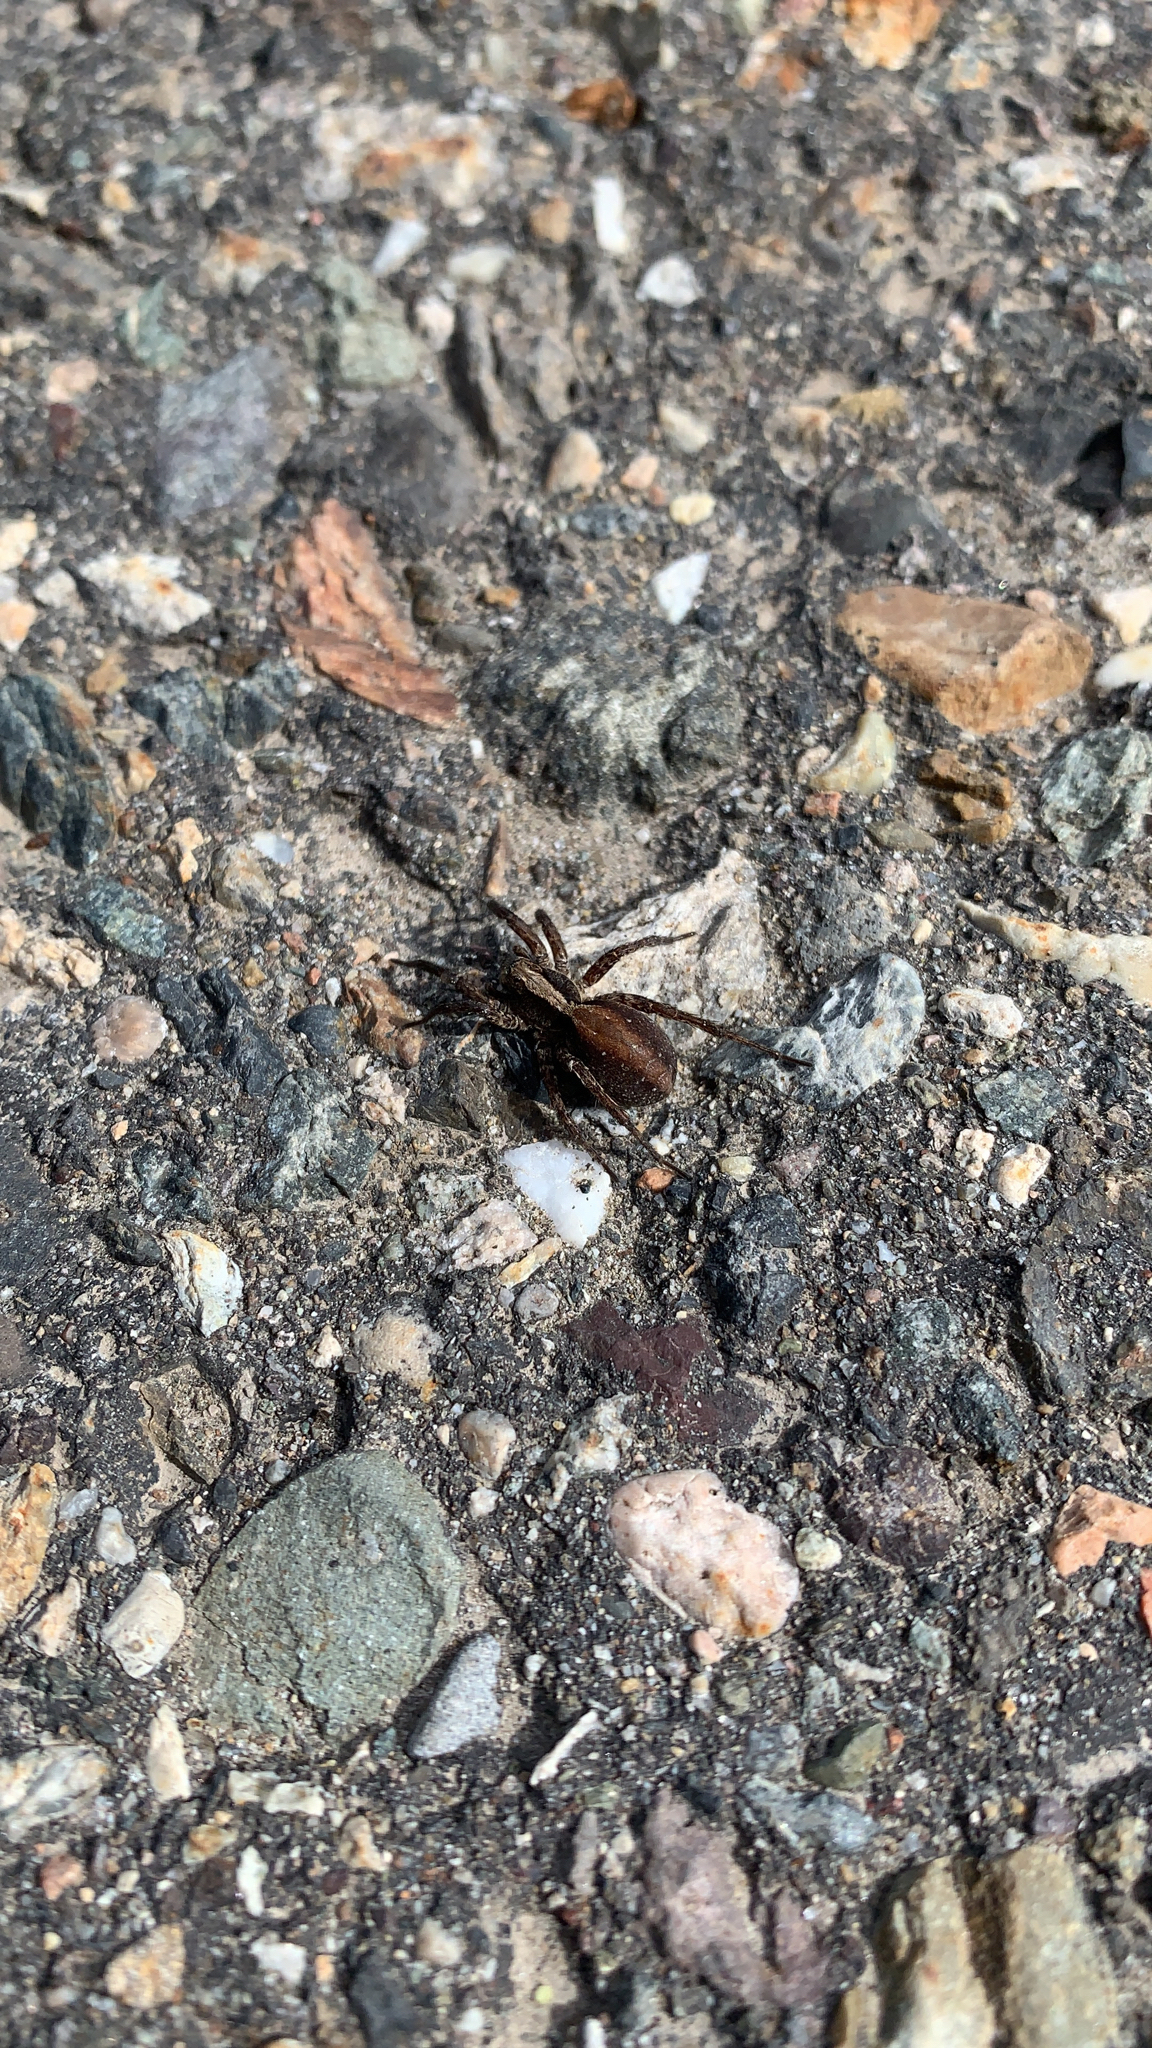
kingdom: Animalia
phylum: Arthropoda
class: Arachnida
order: Araneae
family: Lycosidae
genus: Alopecosa
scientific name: Alopecosa aculeata
